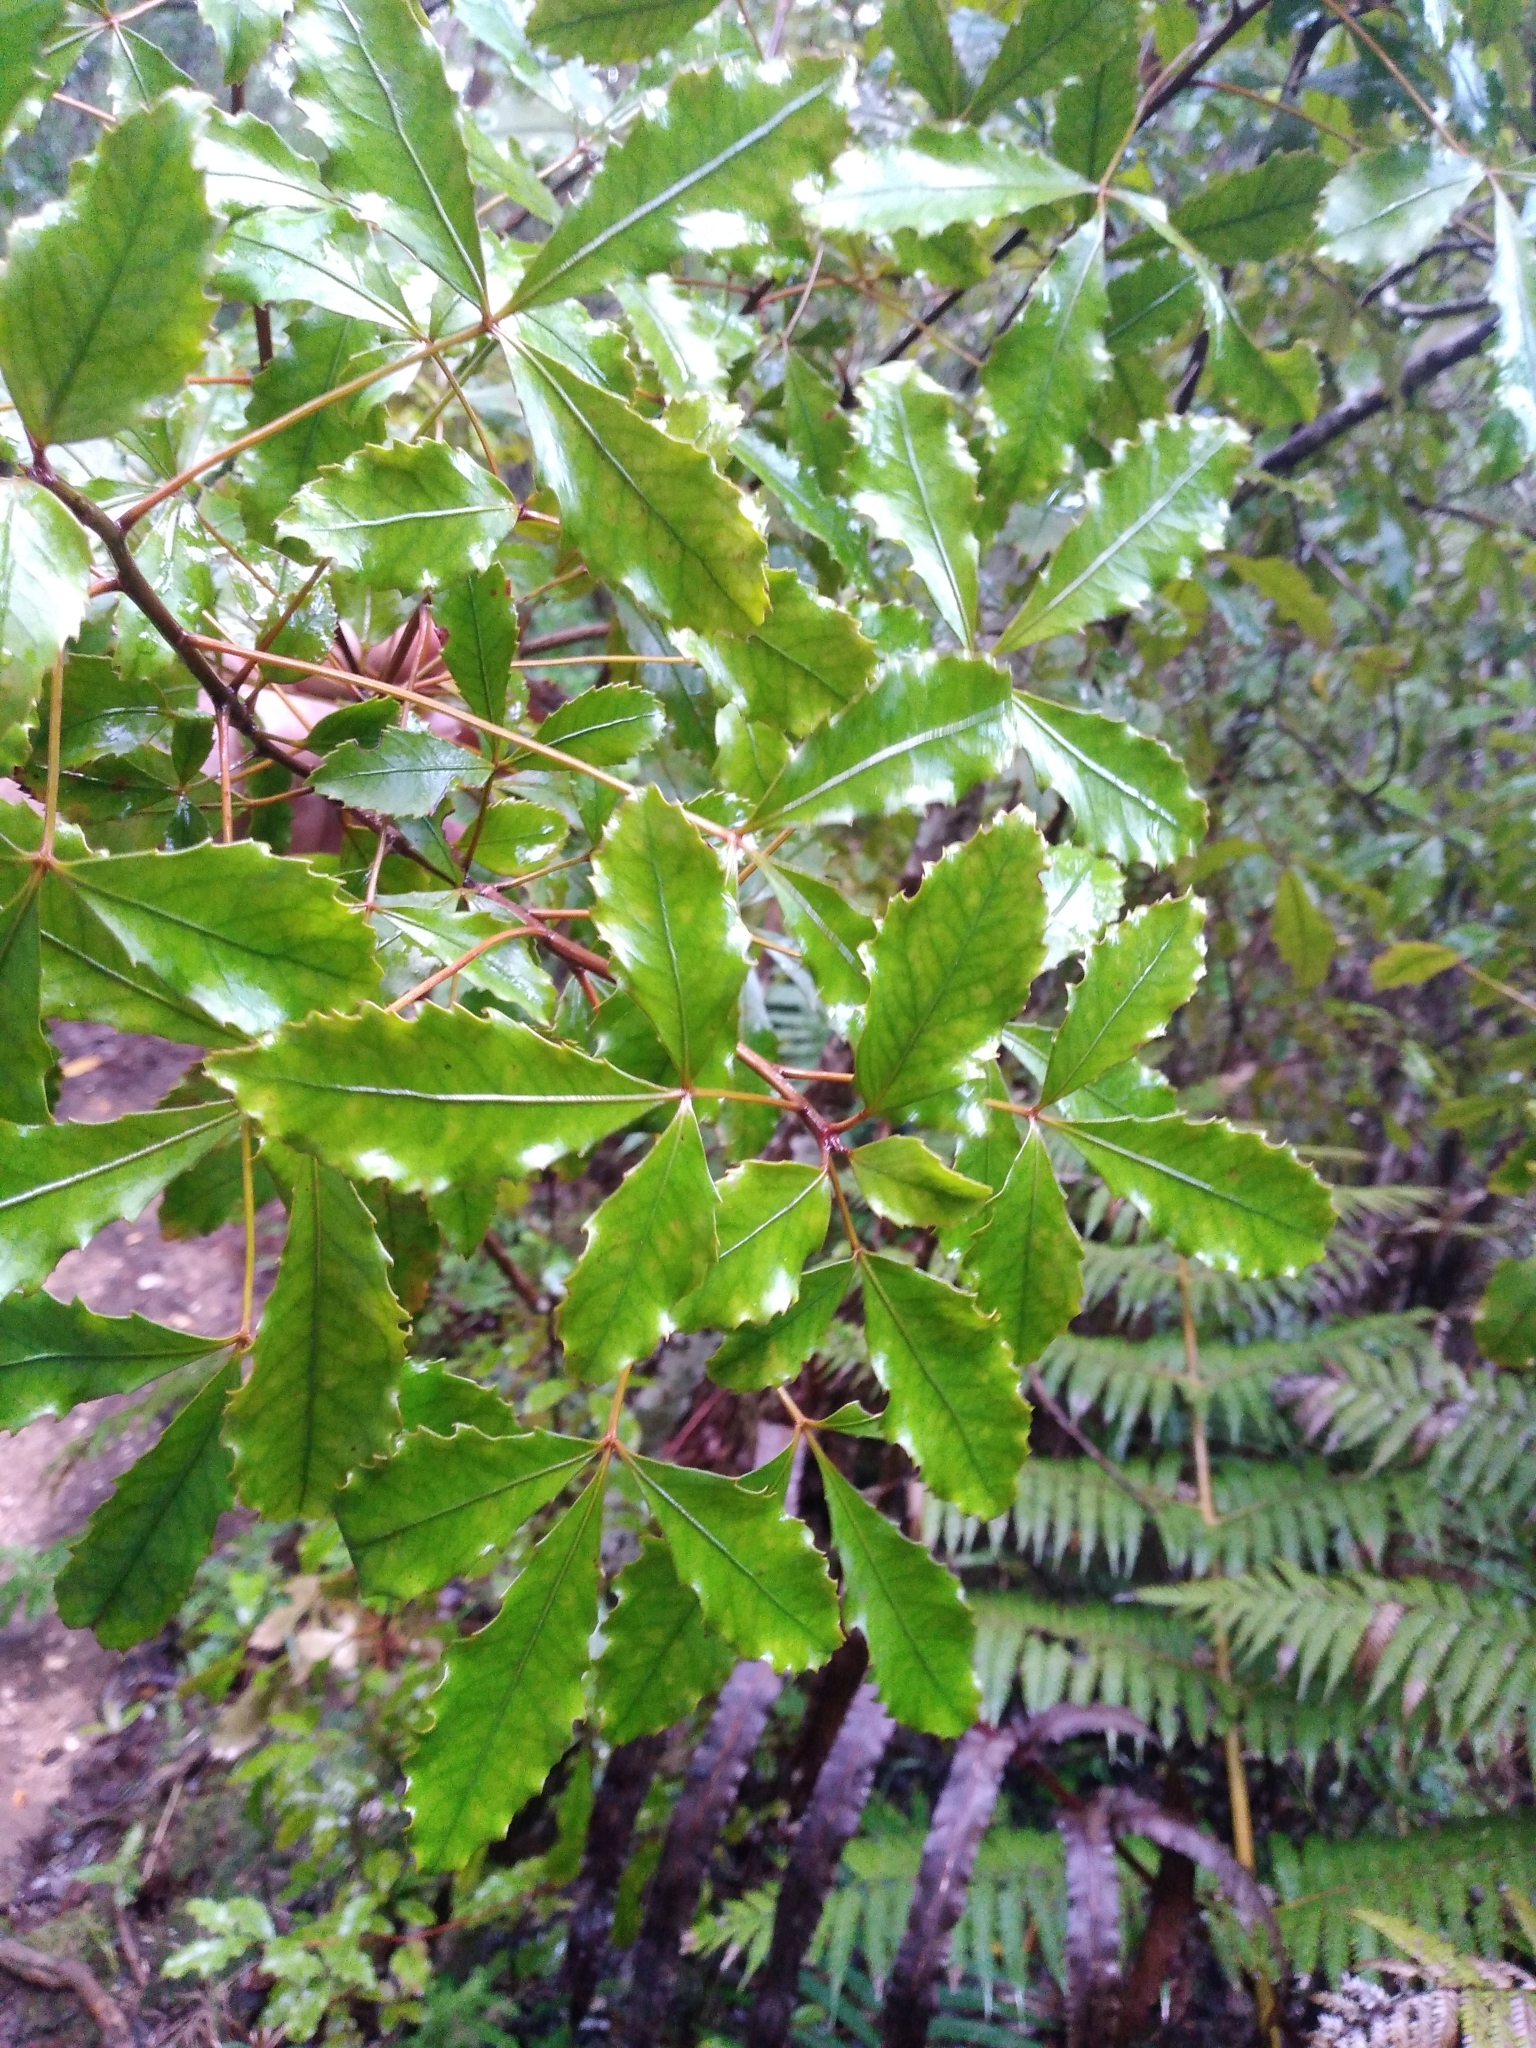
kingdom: Plantae
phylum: Tracheophyta
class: Magnoliopsida
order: Apiales
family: Araliaceae
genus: Pseudopanax
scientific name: Pseudopanax discolor
